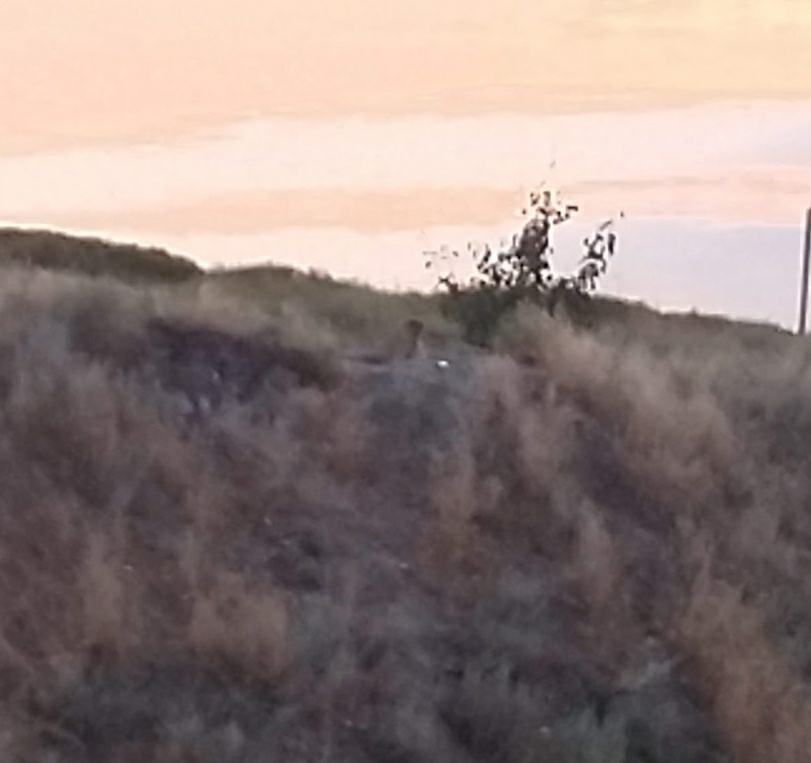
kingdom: Animalia
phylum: Chordata
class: Mammalia
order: Rodentia
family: Sciuridae
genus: Marmota
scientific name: Marmota bobak
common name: Bobak marmot
